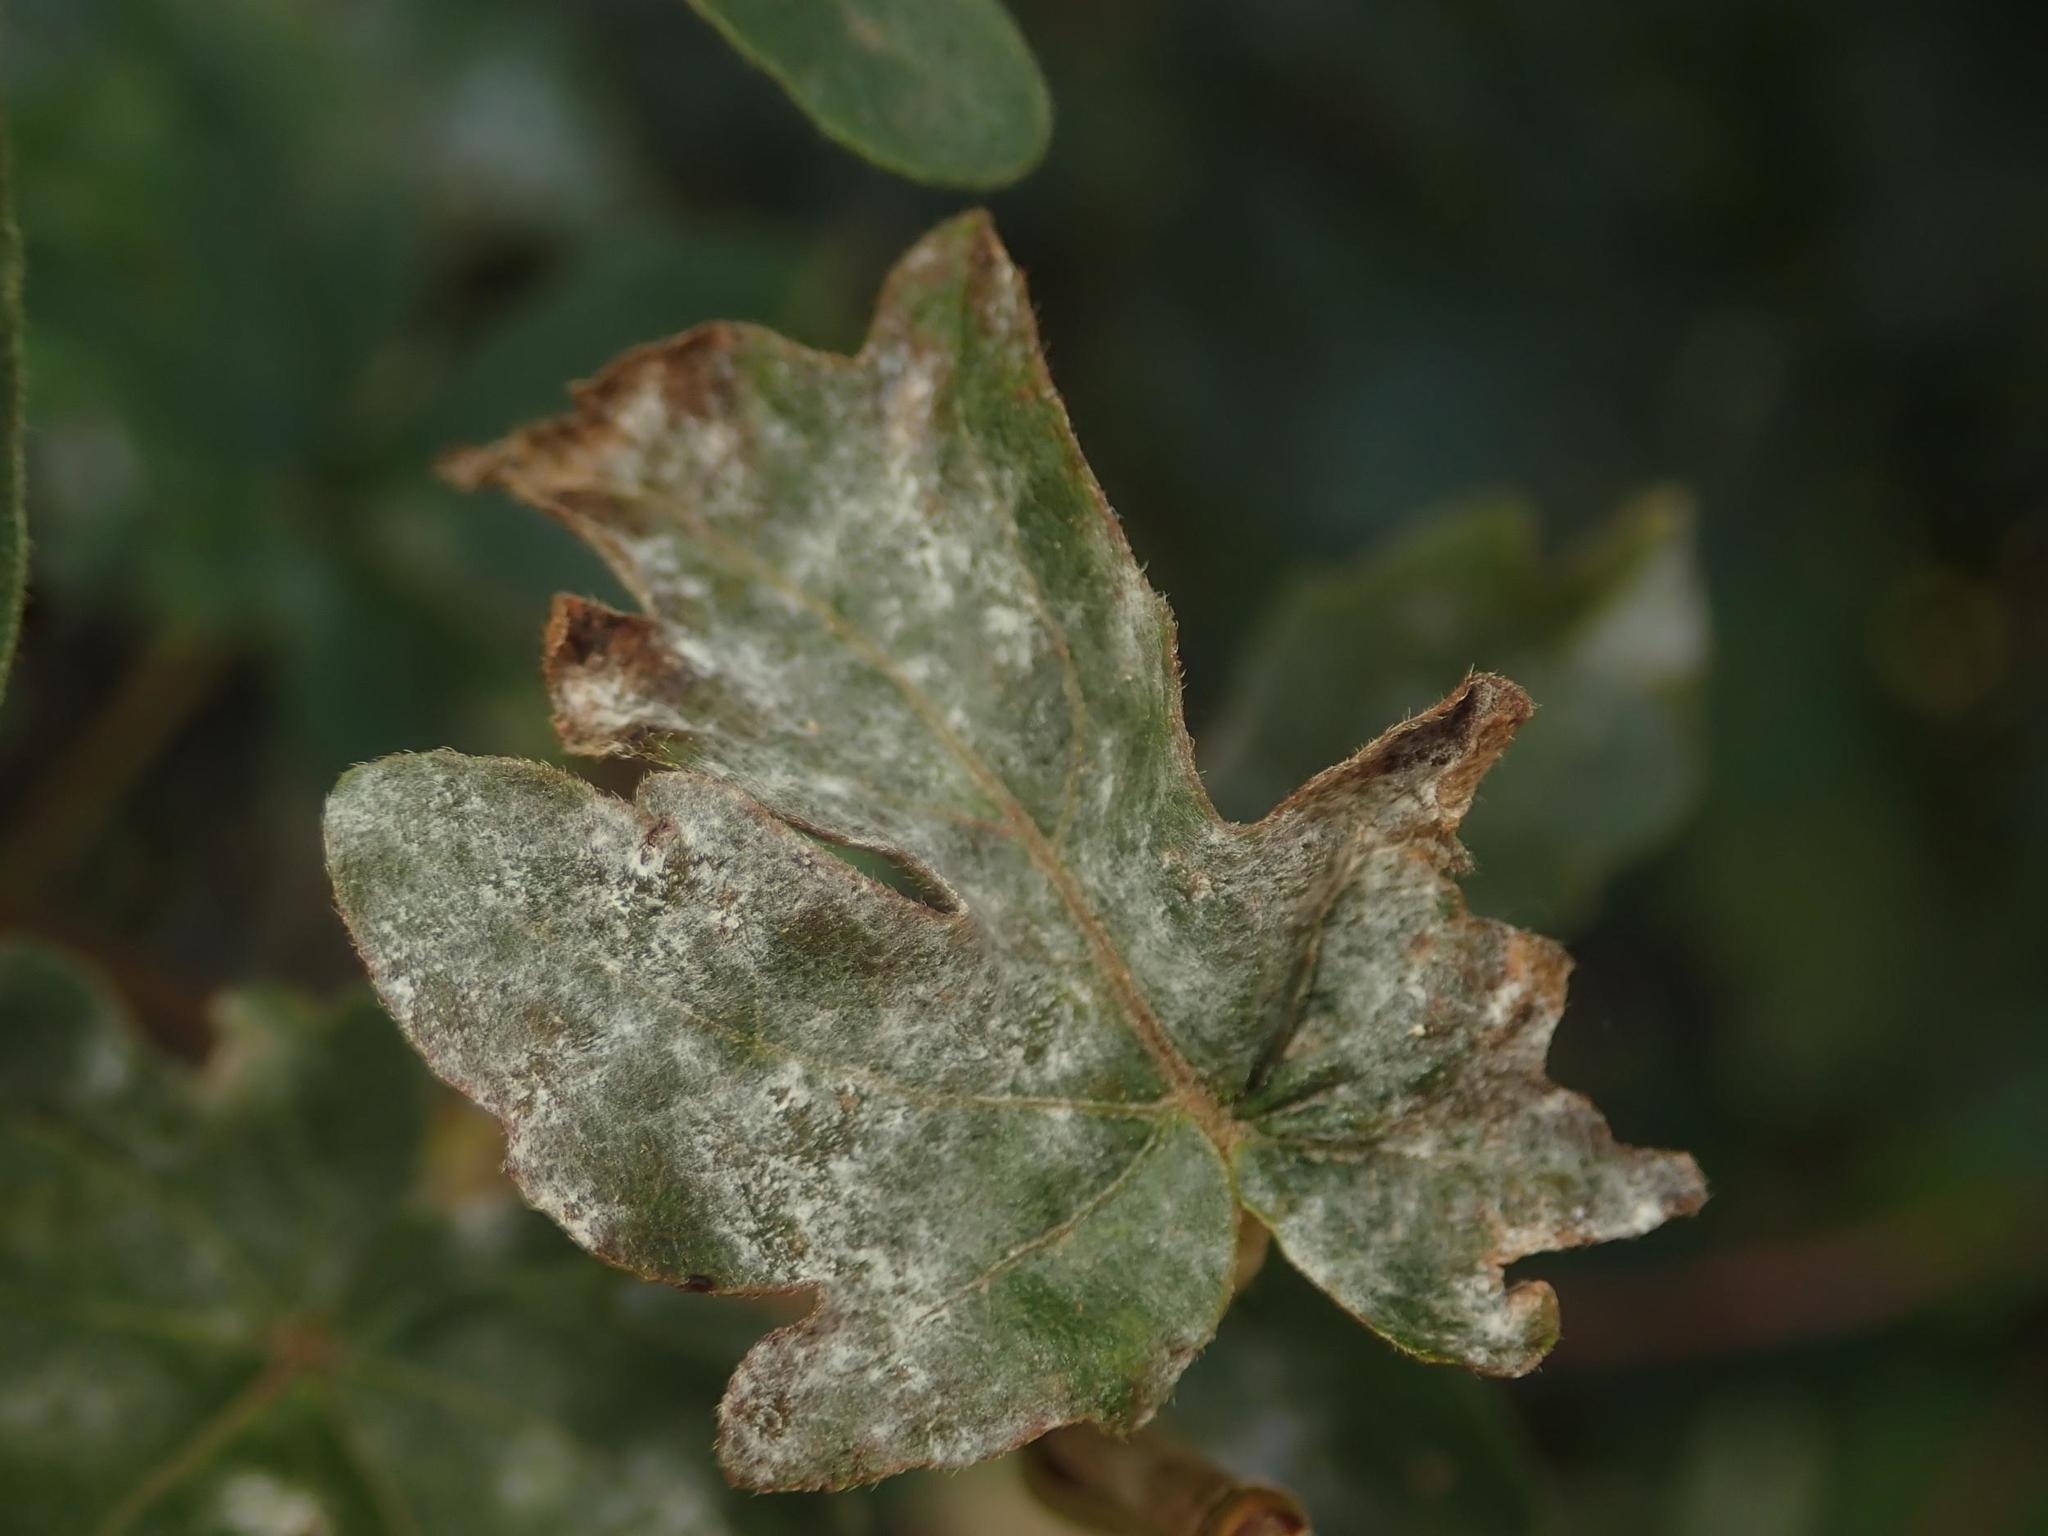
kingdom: Fungi
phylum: Ascomycota
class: Leotiomycetes
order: Helotiales
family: Erysiphaceae
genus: Sawadaea
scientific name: Sawadaea bicornis
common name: Maple mildew
